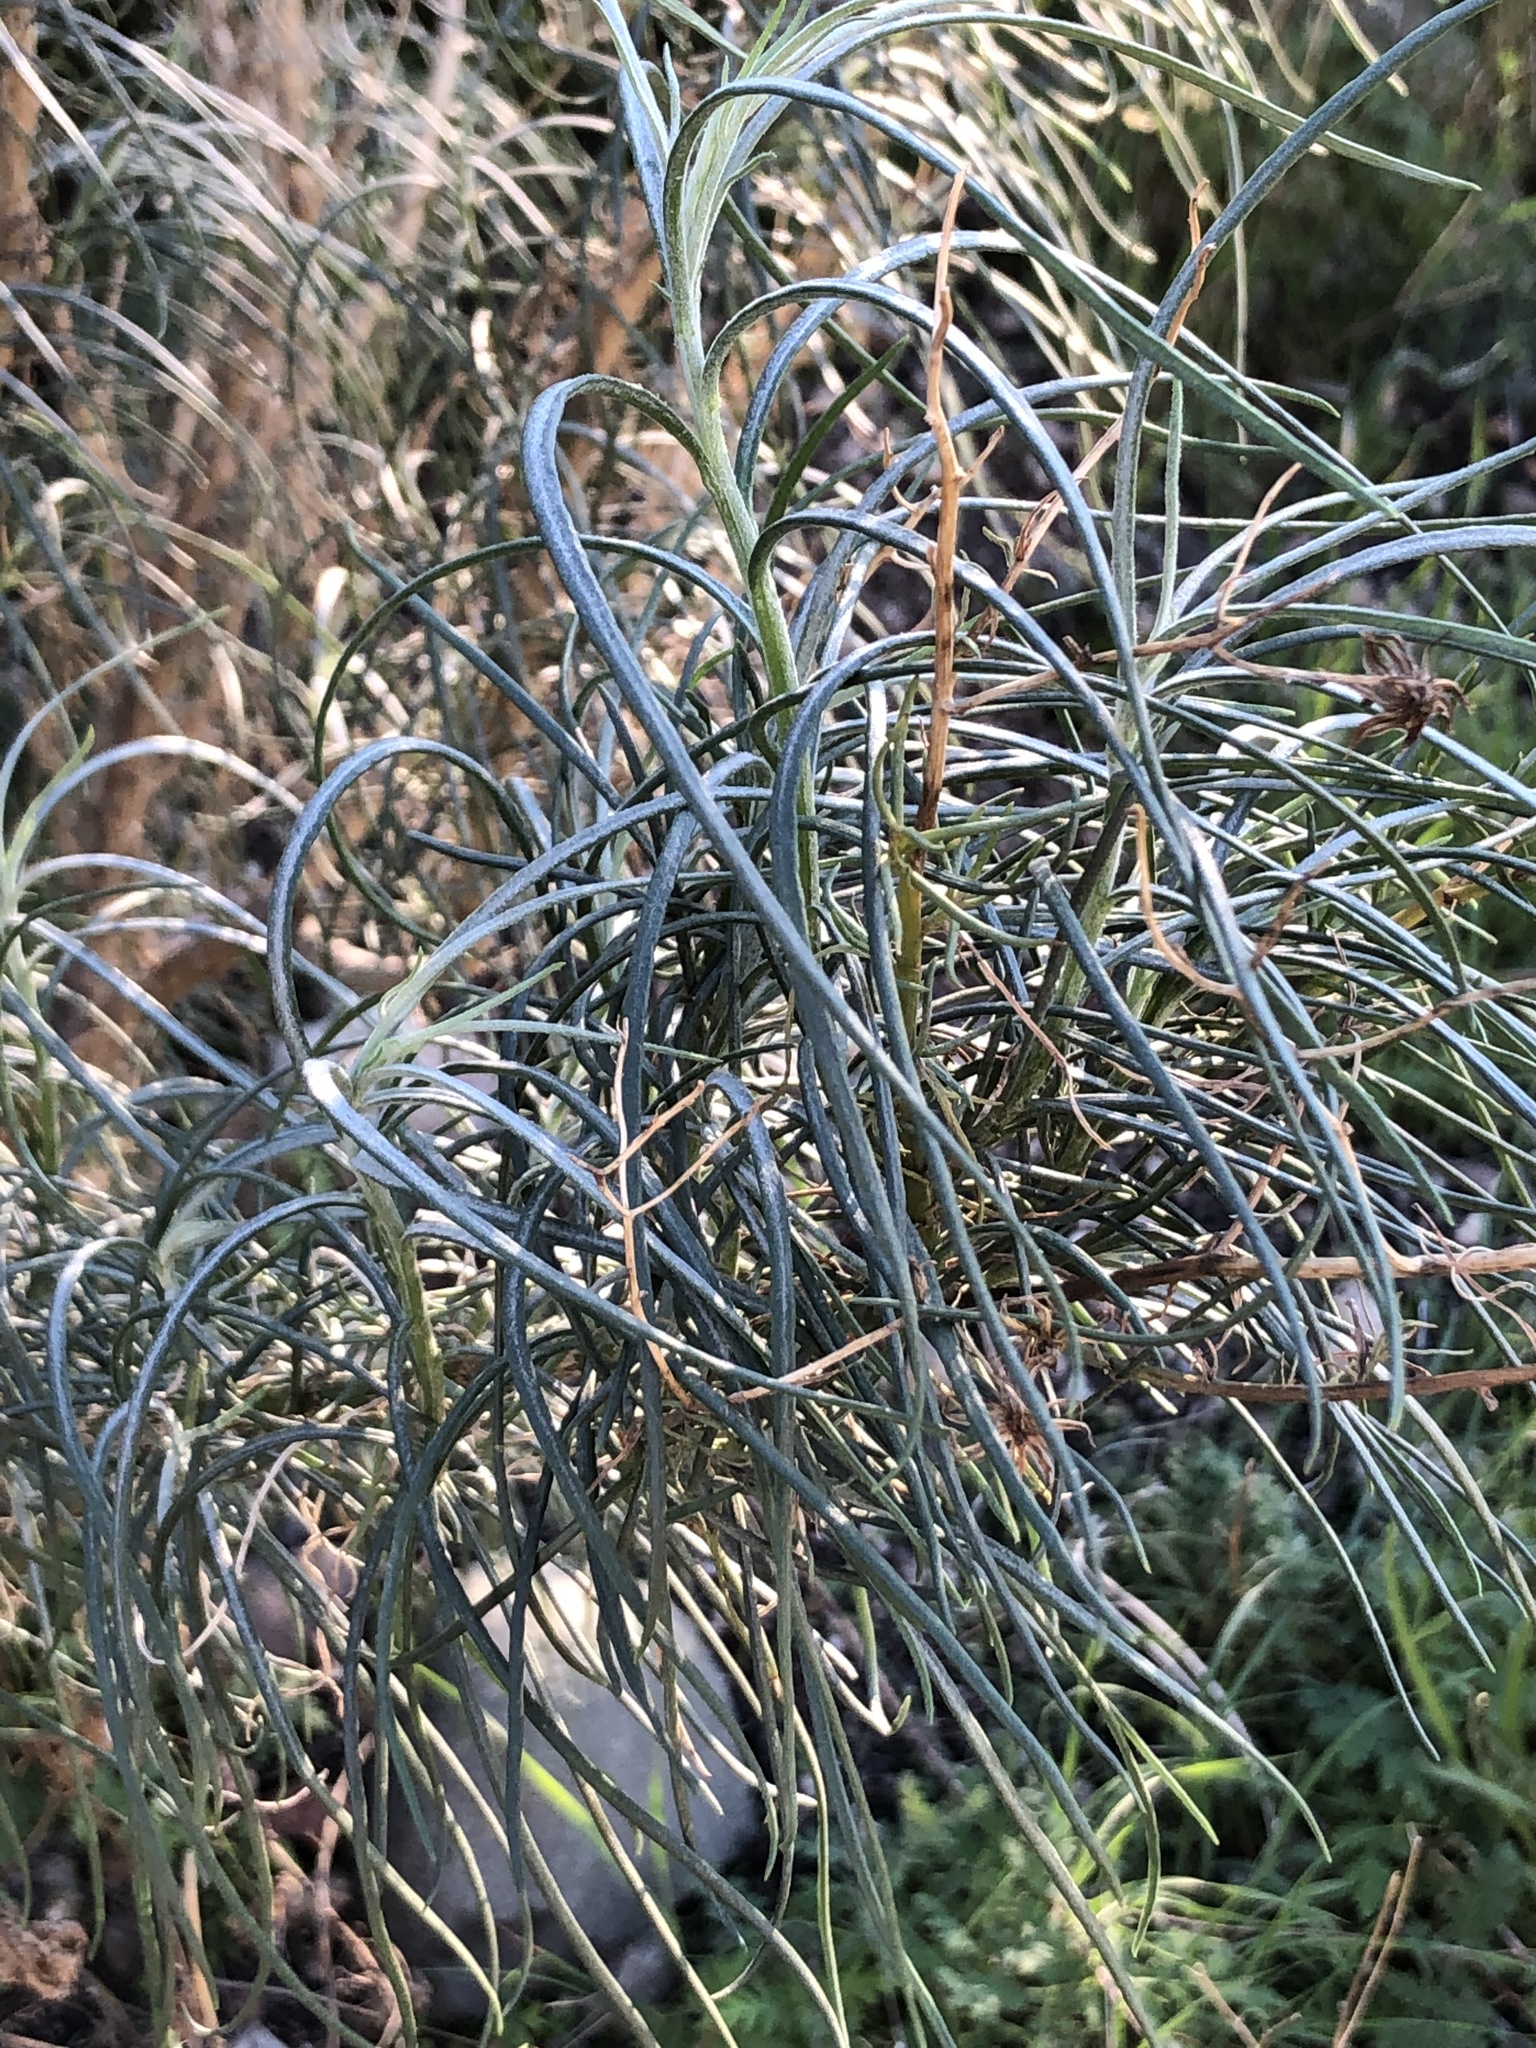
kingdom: Plantae
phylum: Tracheophyta
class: Magnoliopsida
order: Asterales
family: Asteraceae
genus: Senecio
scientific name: Senecio flaccidus
